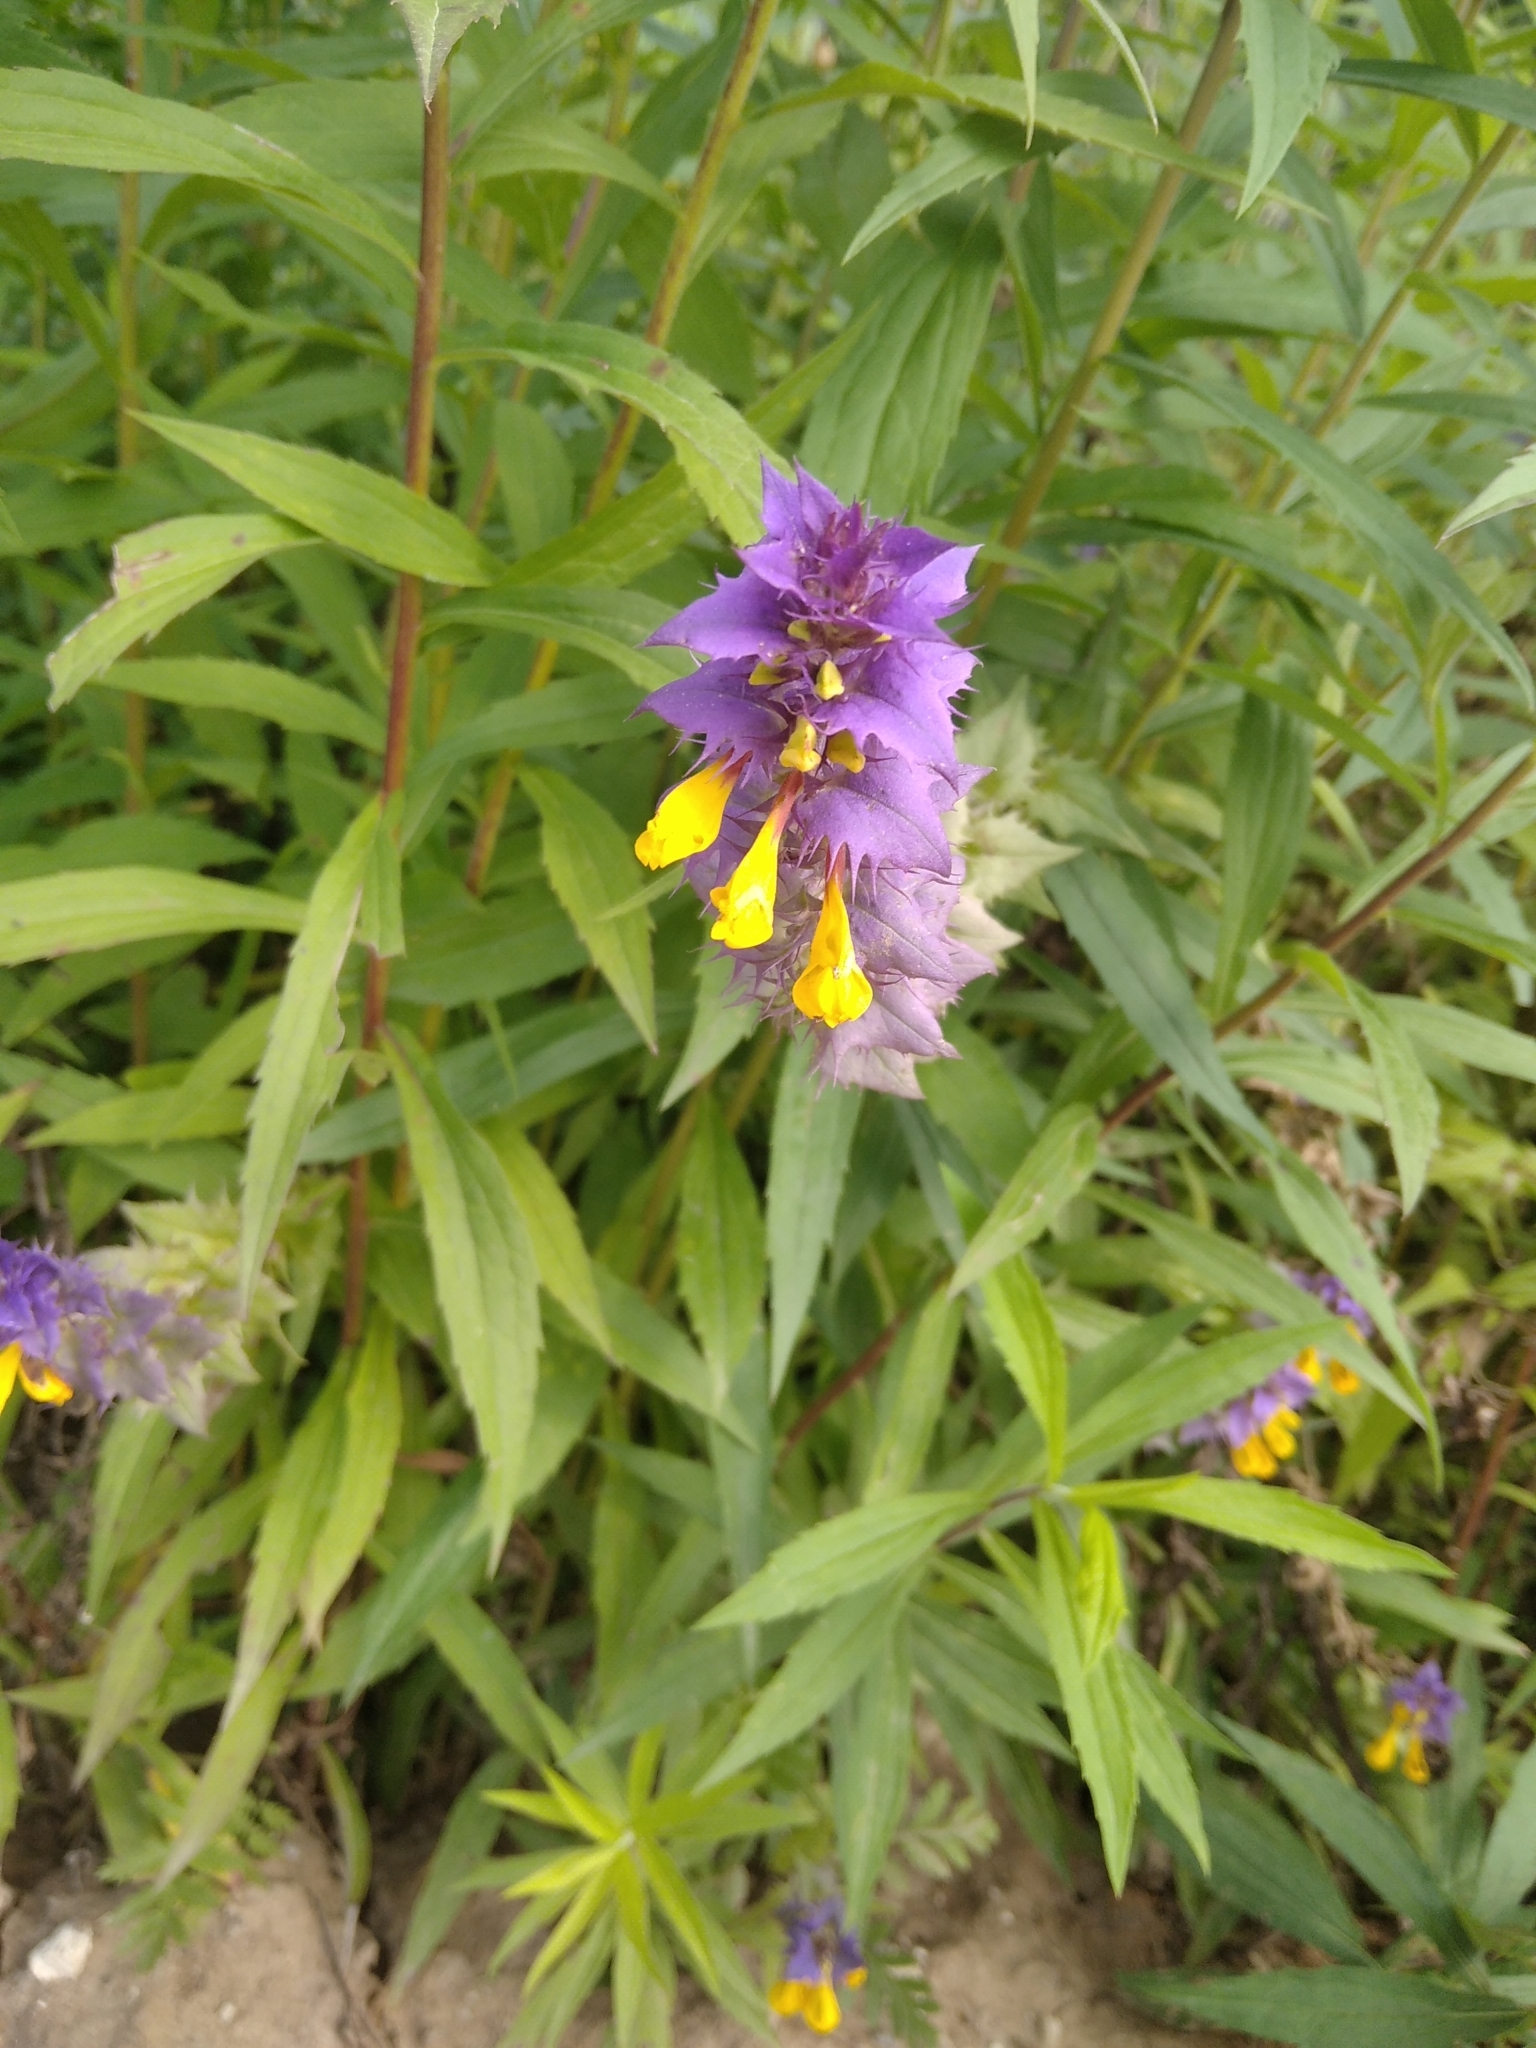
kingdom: Plantae
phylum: Tracheophyta
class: Magnoliopsida
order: Lamiales
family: Orobanchaceae
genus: Melampyrum
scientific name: Melampyrum nemorosum
